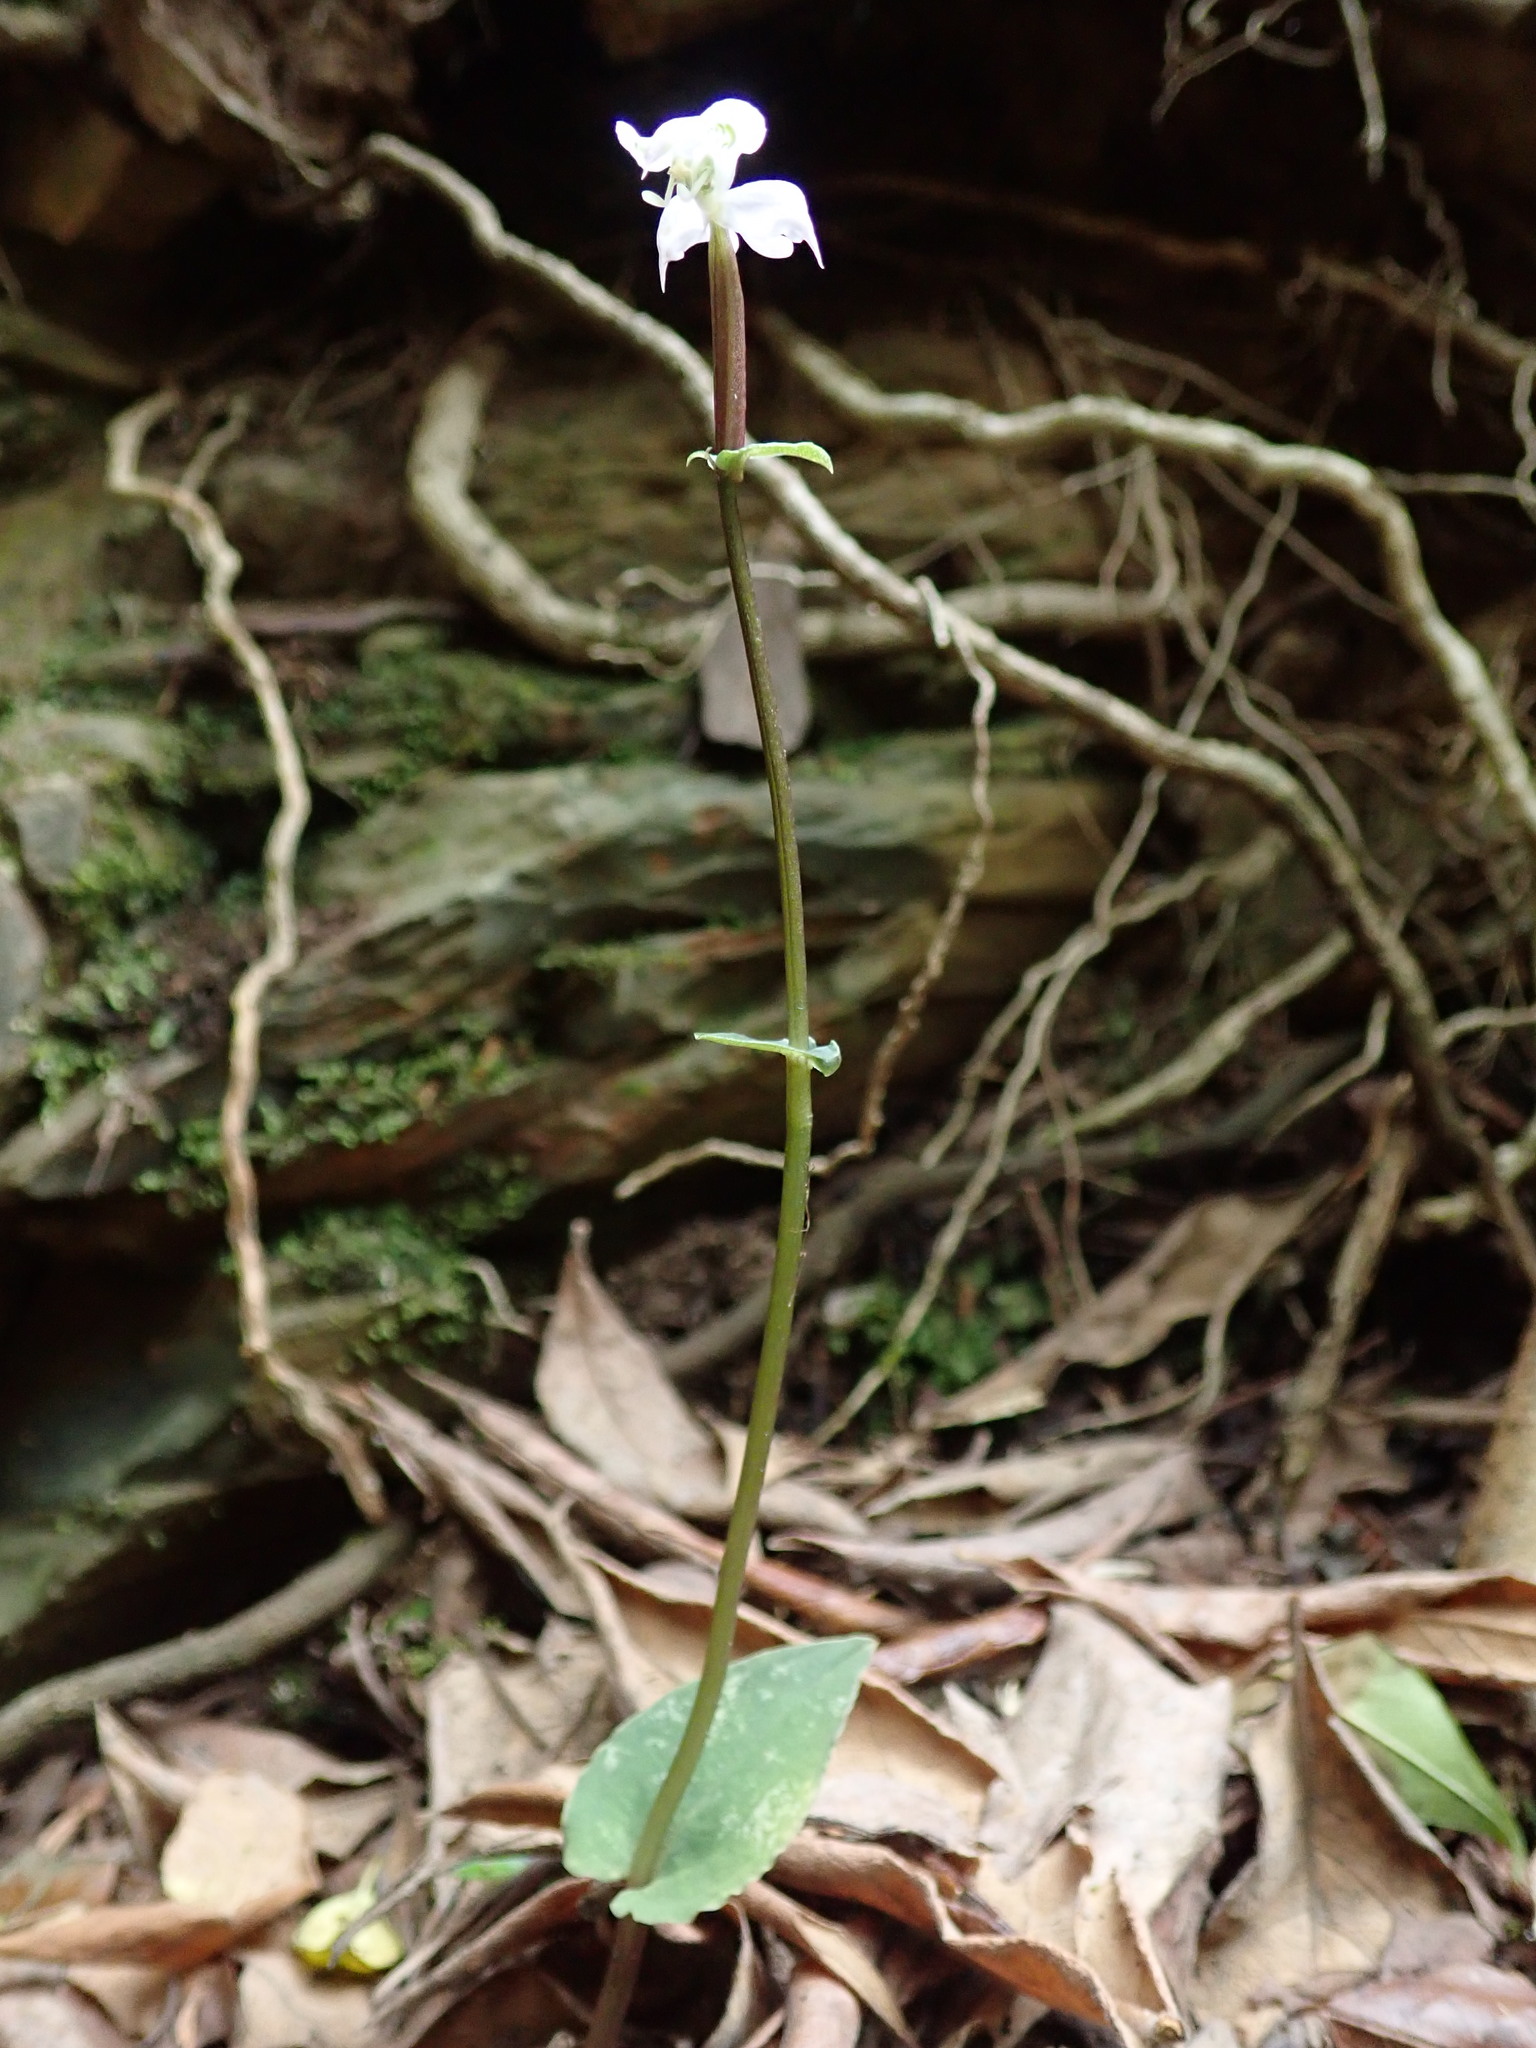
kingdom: Plantae
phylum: Tracheophyta
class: Liliopsida
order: Asparagales
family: Orchidaceae
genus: Disperis
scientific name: Disperis thorncroftii
